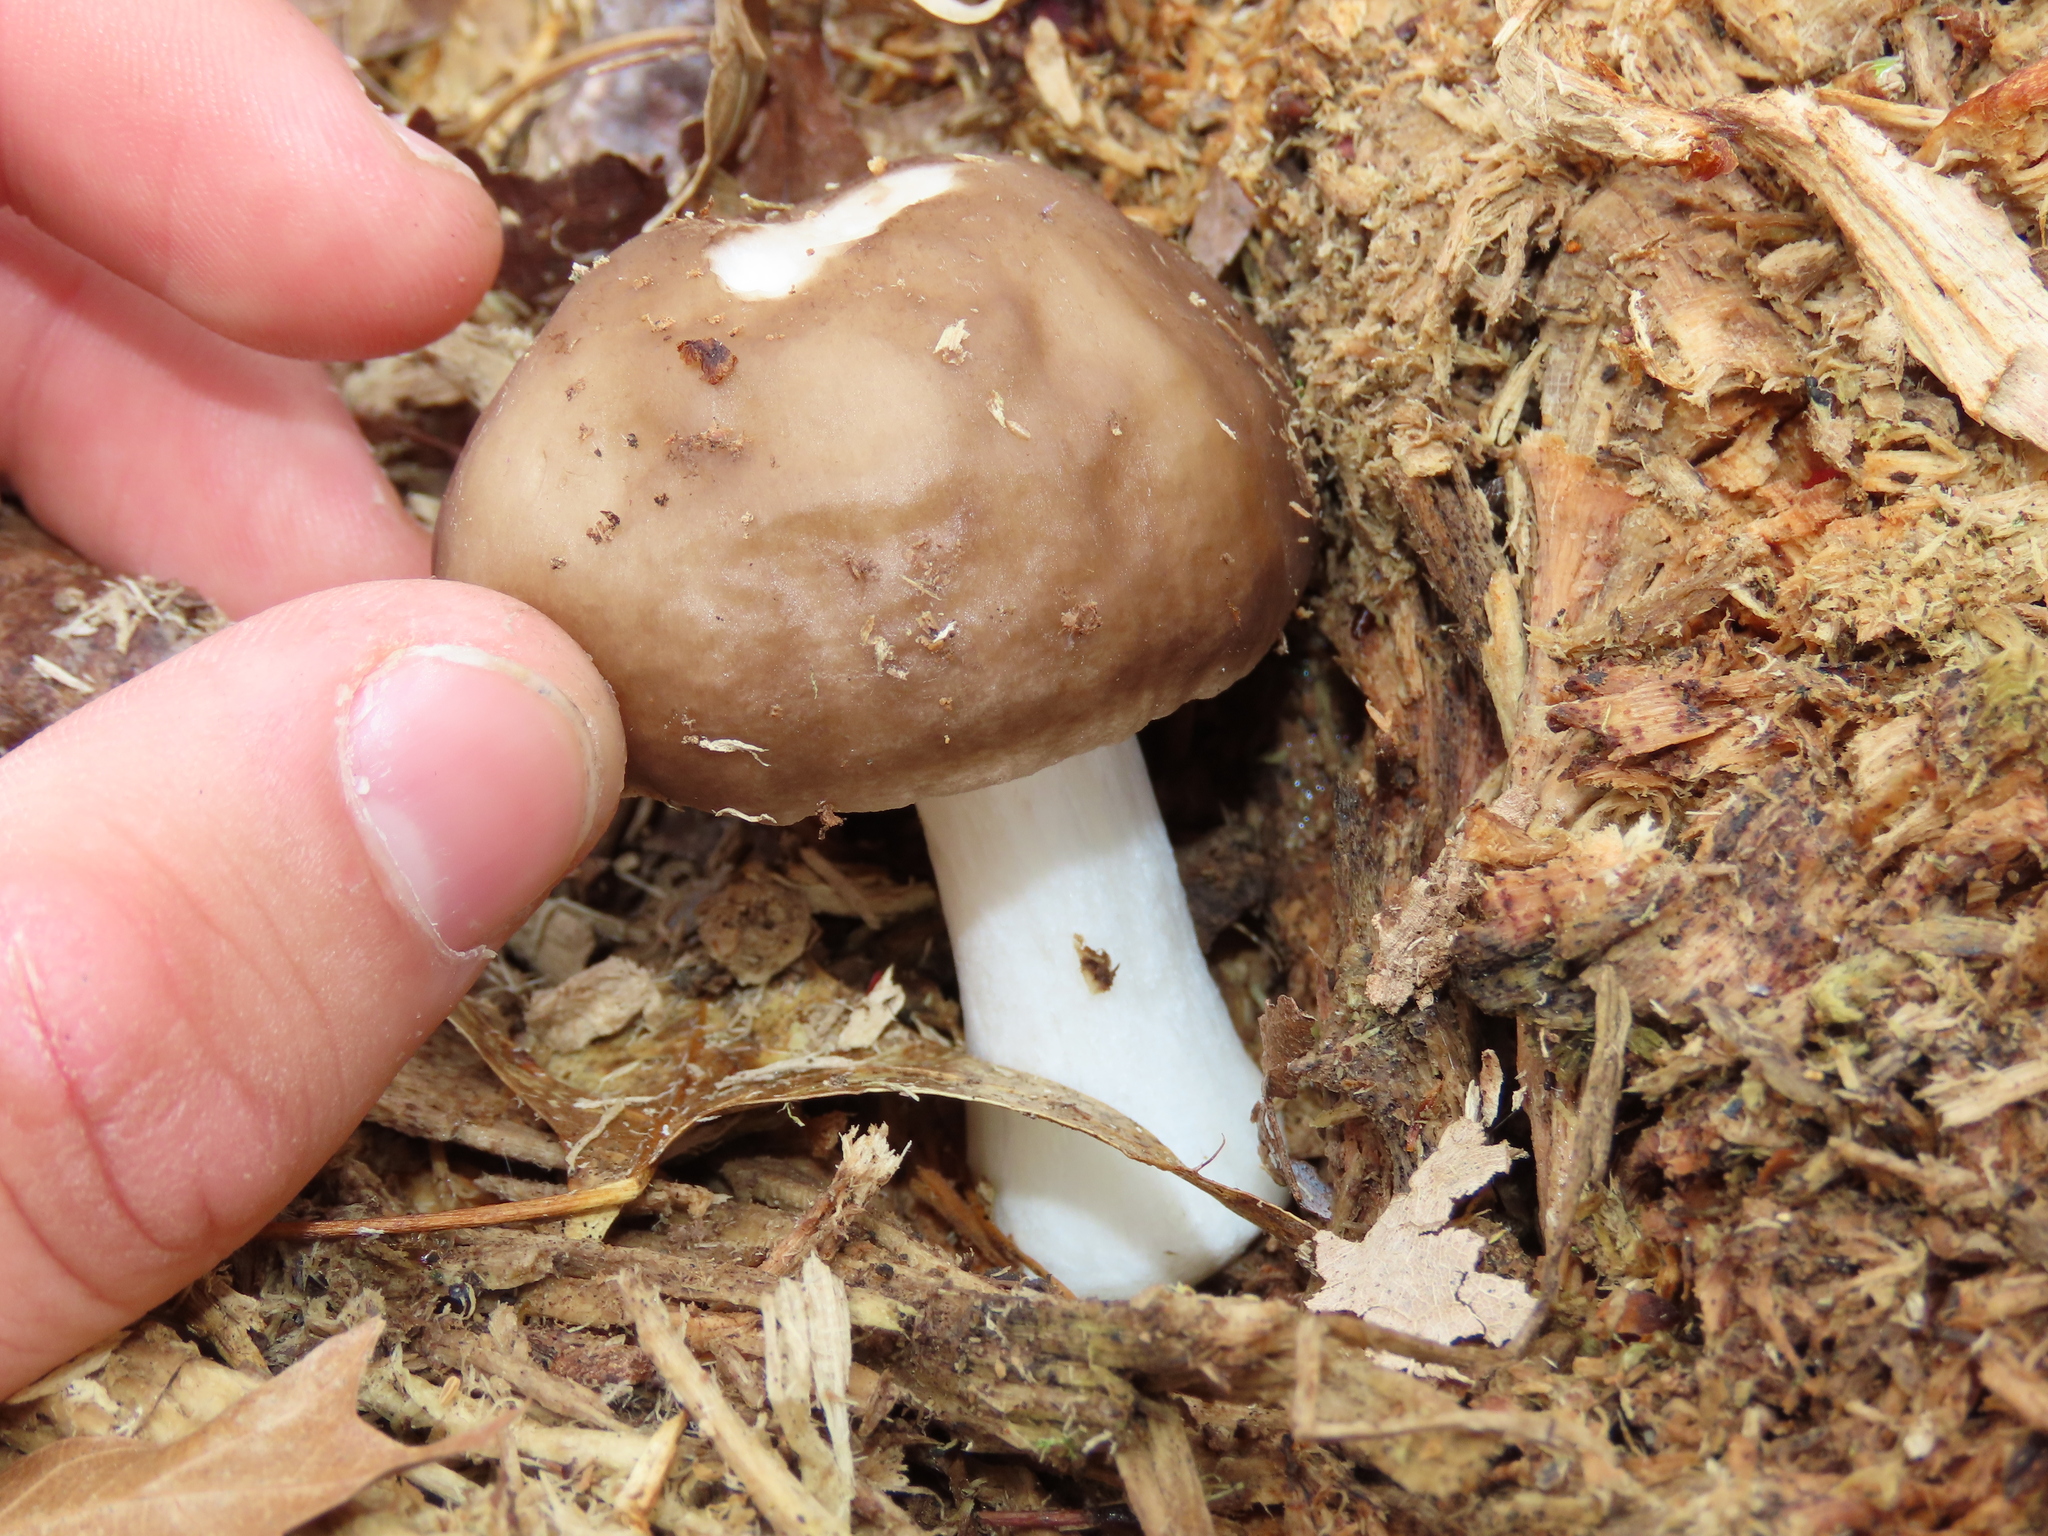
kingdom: Fungi
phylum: Basidiomycota
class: Agaricomycetes
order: Agaricales
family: Pluteaceae
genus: Pluteus
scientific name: Pluteus cervinus
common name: Deer shield
